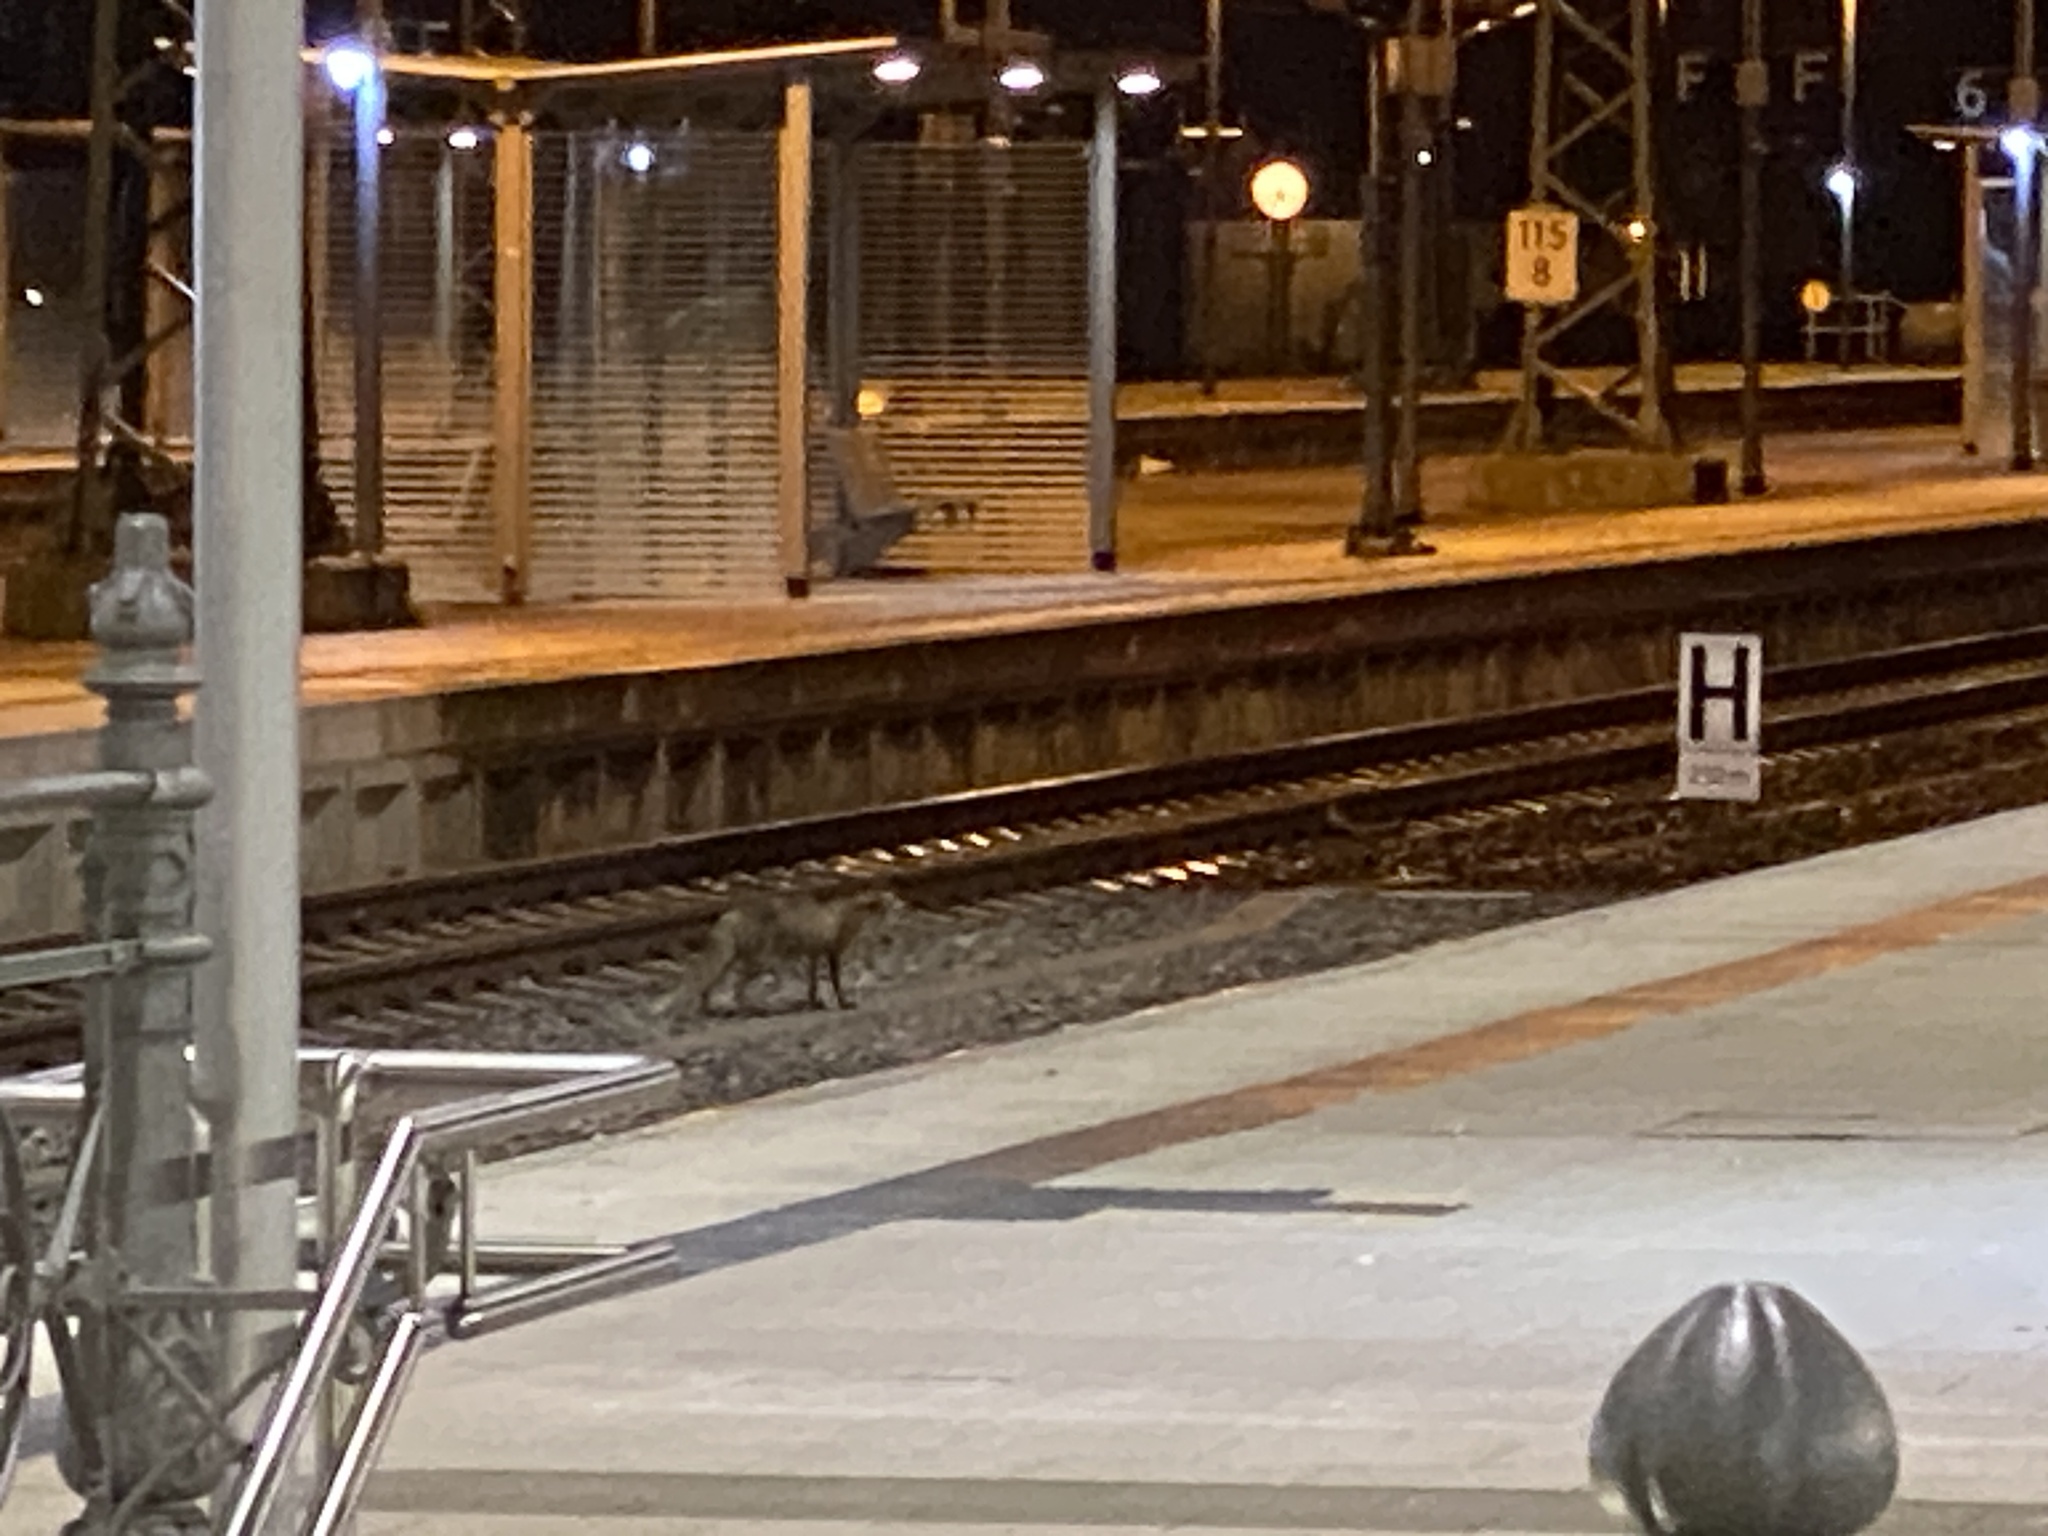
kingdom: Animalia
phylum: Chordata
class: Mammalia
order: Carnivora
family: Canidae
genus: Vulpes
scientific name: Vulpes vulpes
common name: Red fox
